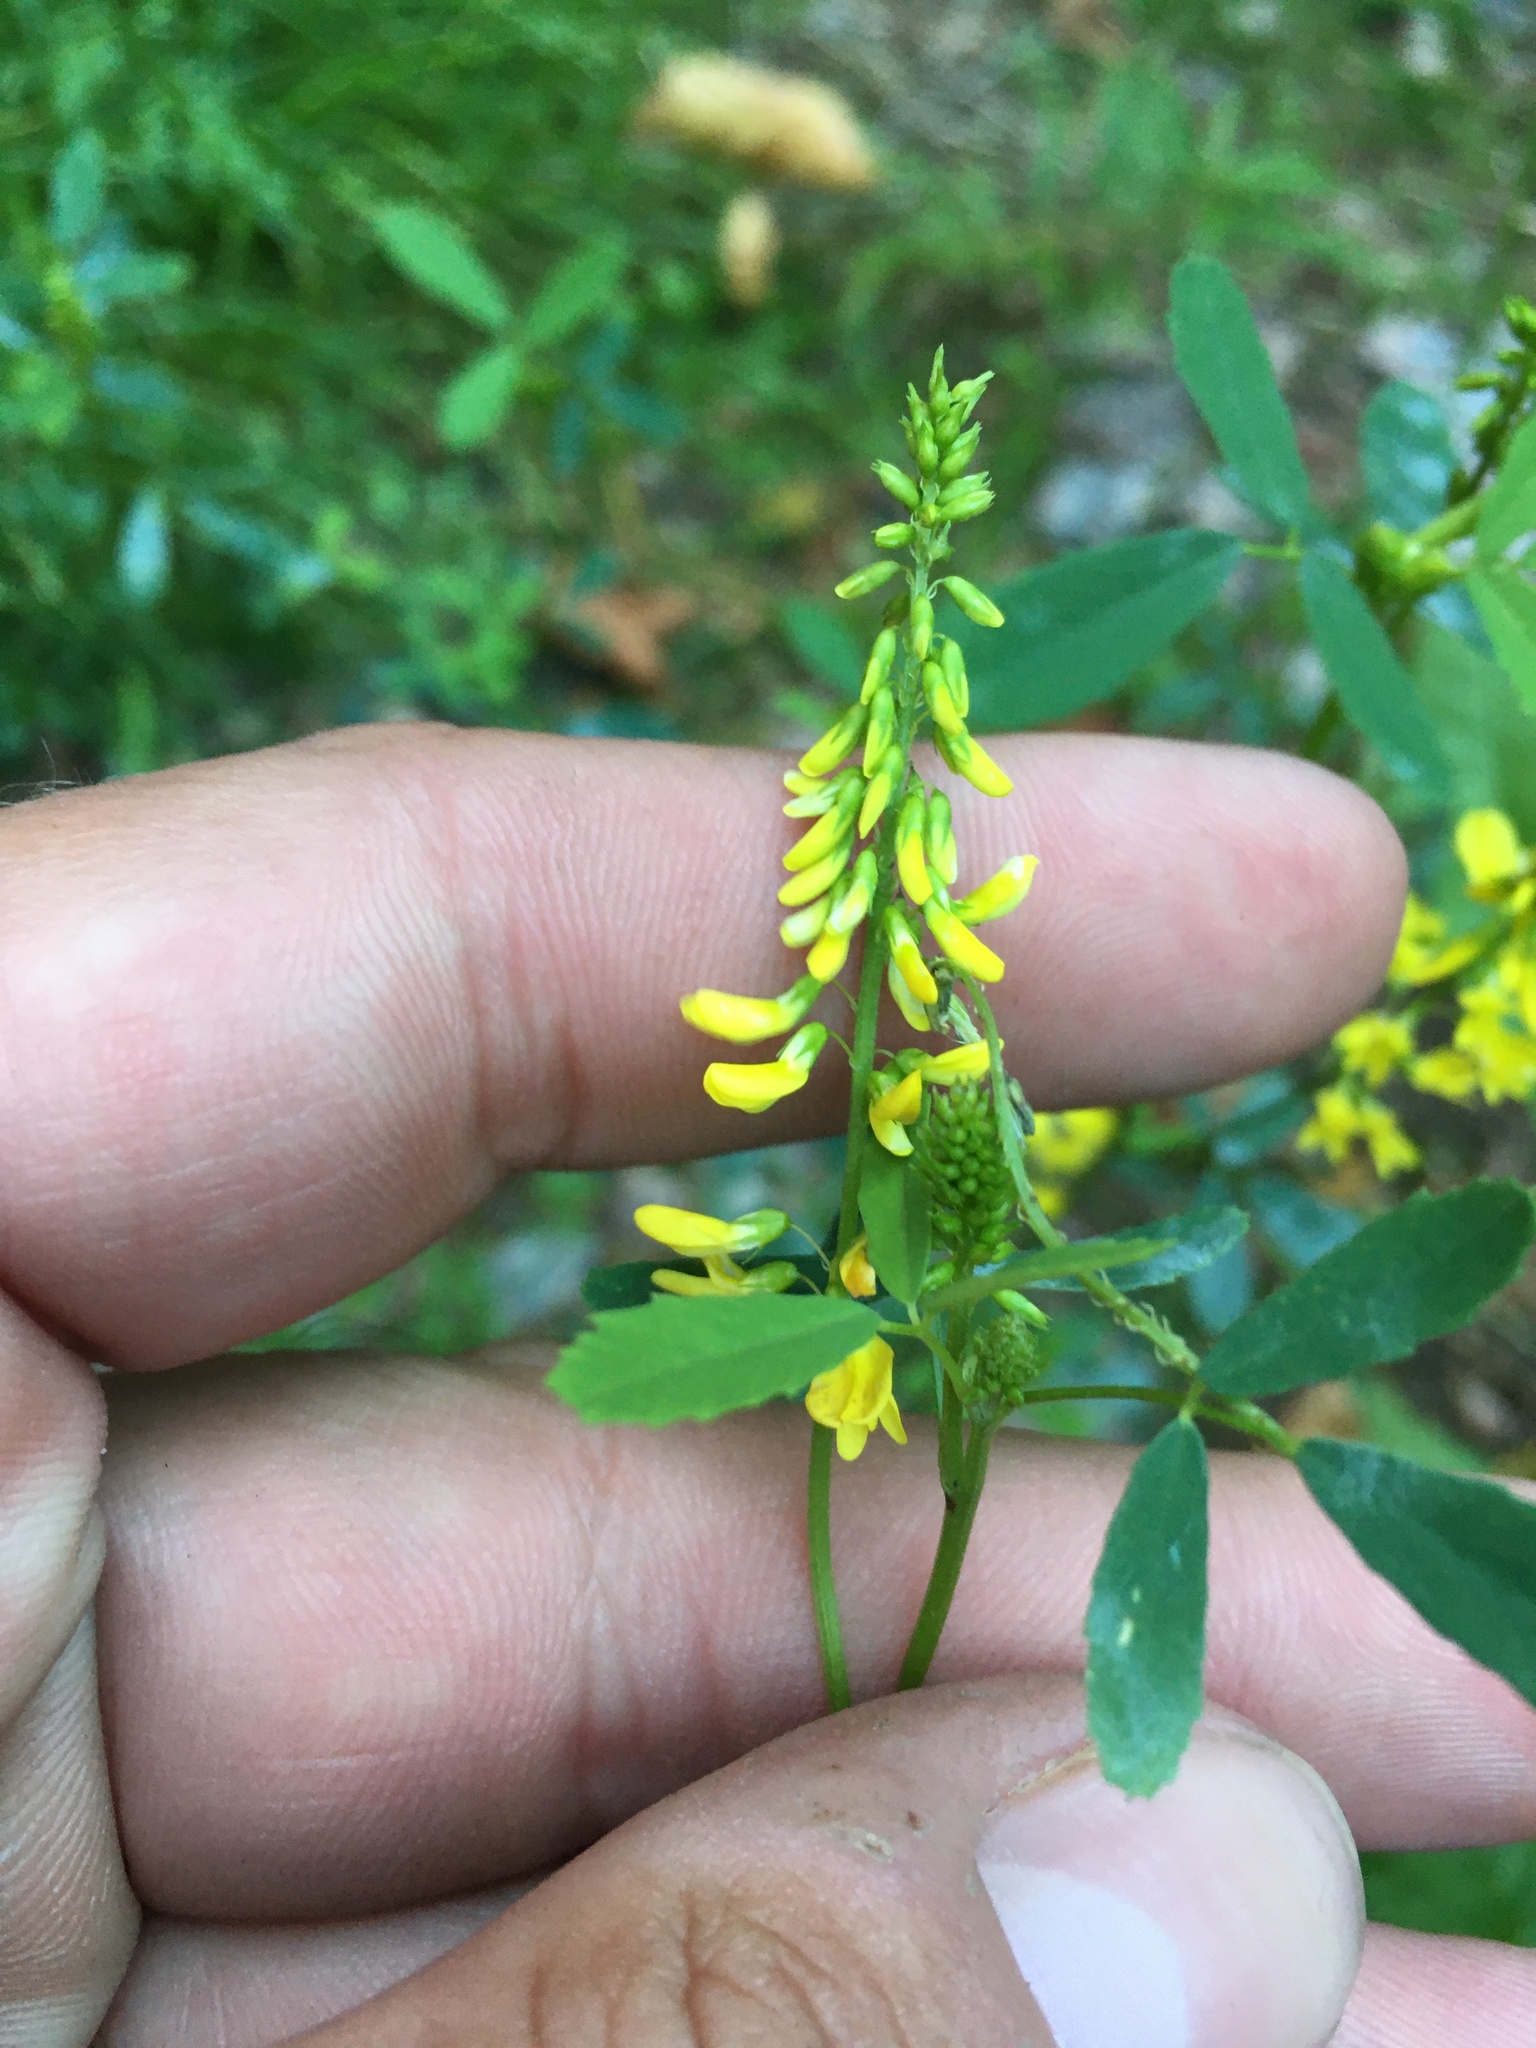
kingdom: Plantae
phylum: Tracheophyta
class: Magnoliopsida
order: Fabales
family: Fabaceae
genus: Melilotus
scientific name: Melilotus officinalis
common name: Sweetclover
